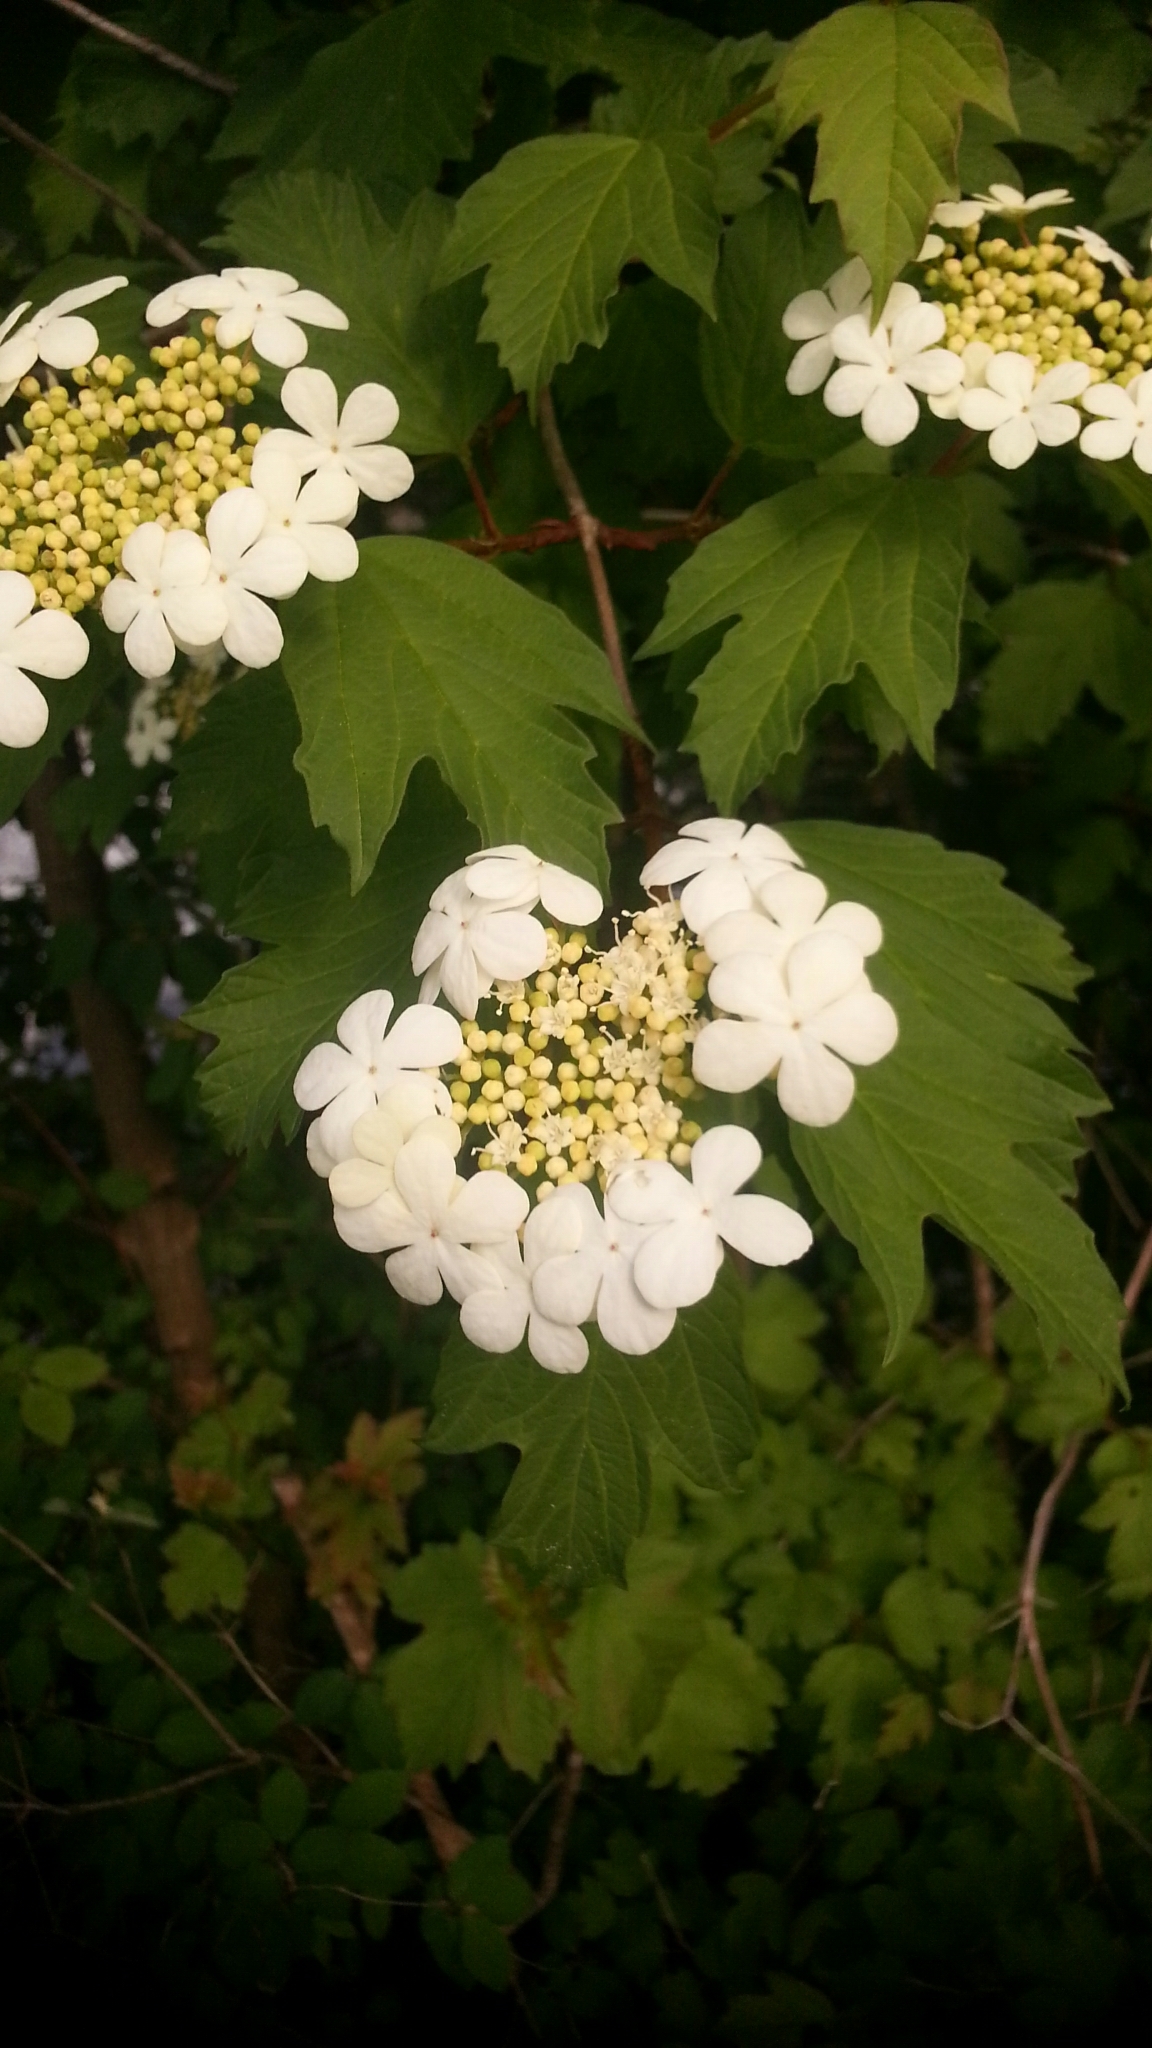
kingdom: Plantae
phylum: Tracheophyta
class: Magnoliopsida
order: Dipsacales
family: Viburnaceae
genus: Viburnum
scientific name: Viburnum opulus
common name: Guelder-rose
